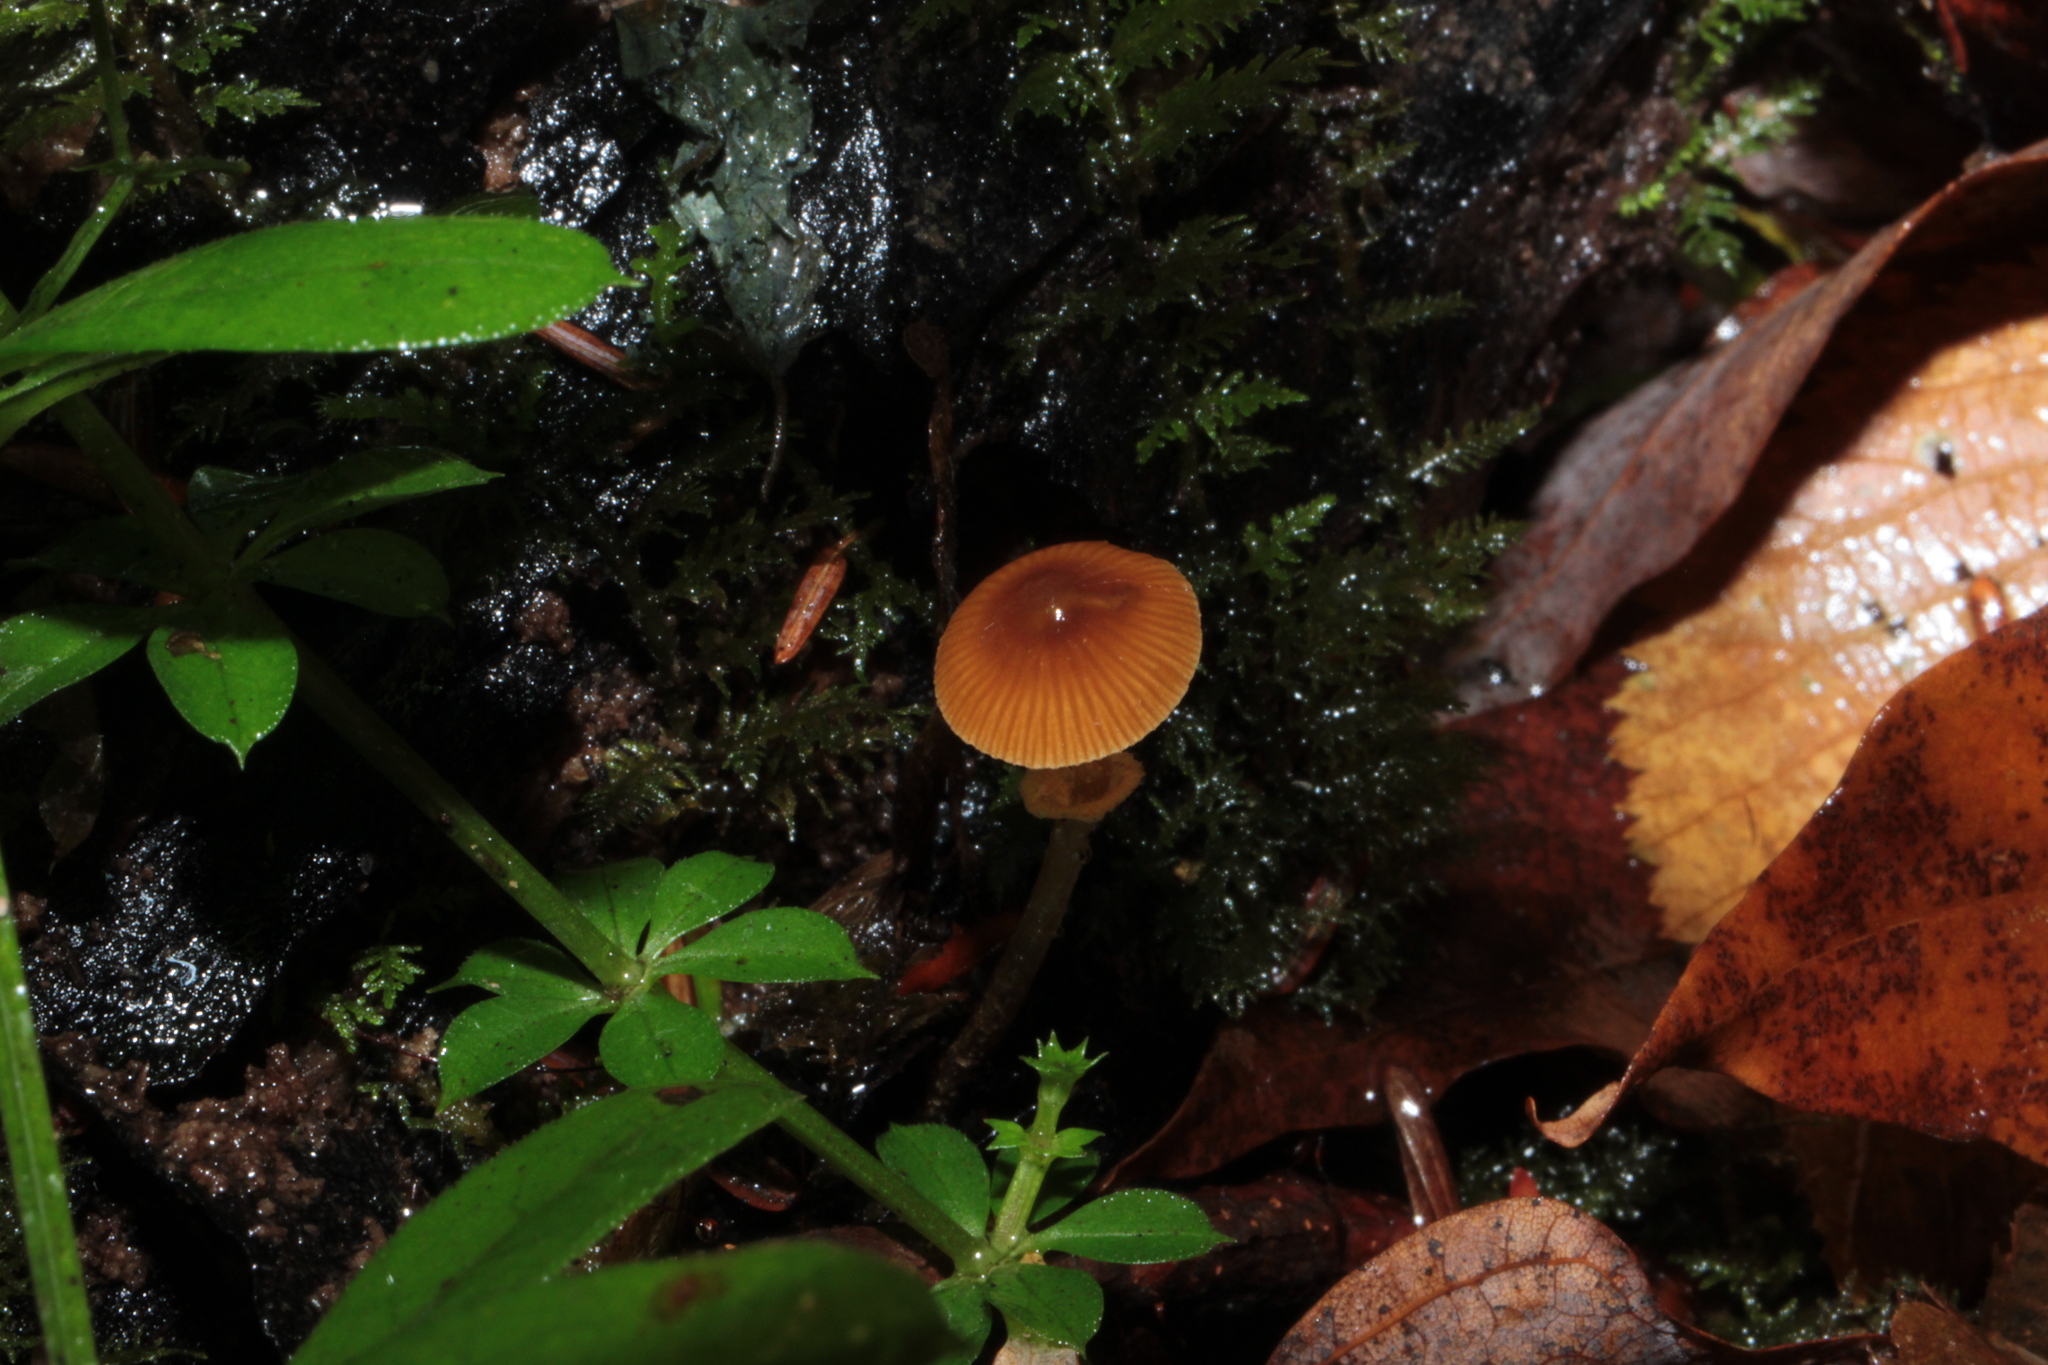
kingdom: Fungi
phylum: Basidiomycota
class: Agaricomycetes
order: Agaricales
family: Bolbitiaceae
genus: Conocybe
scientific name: Conocybe rugosa
